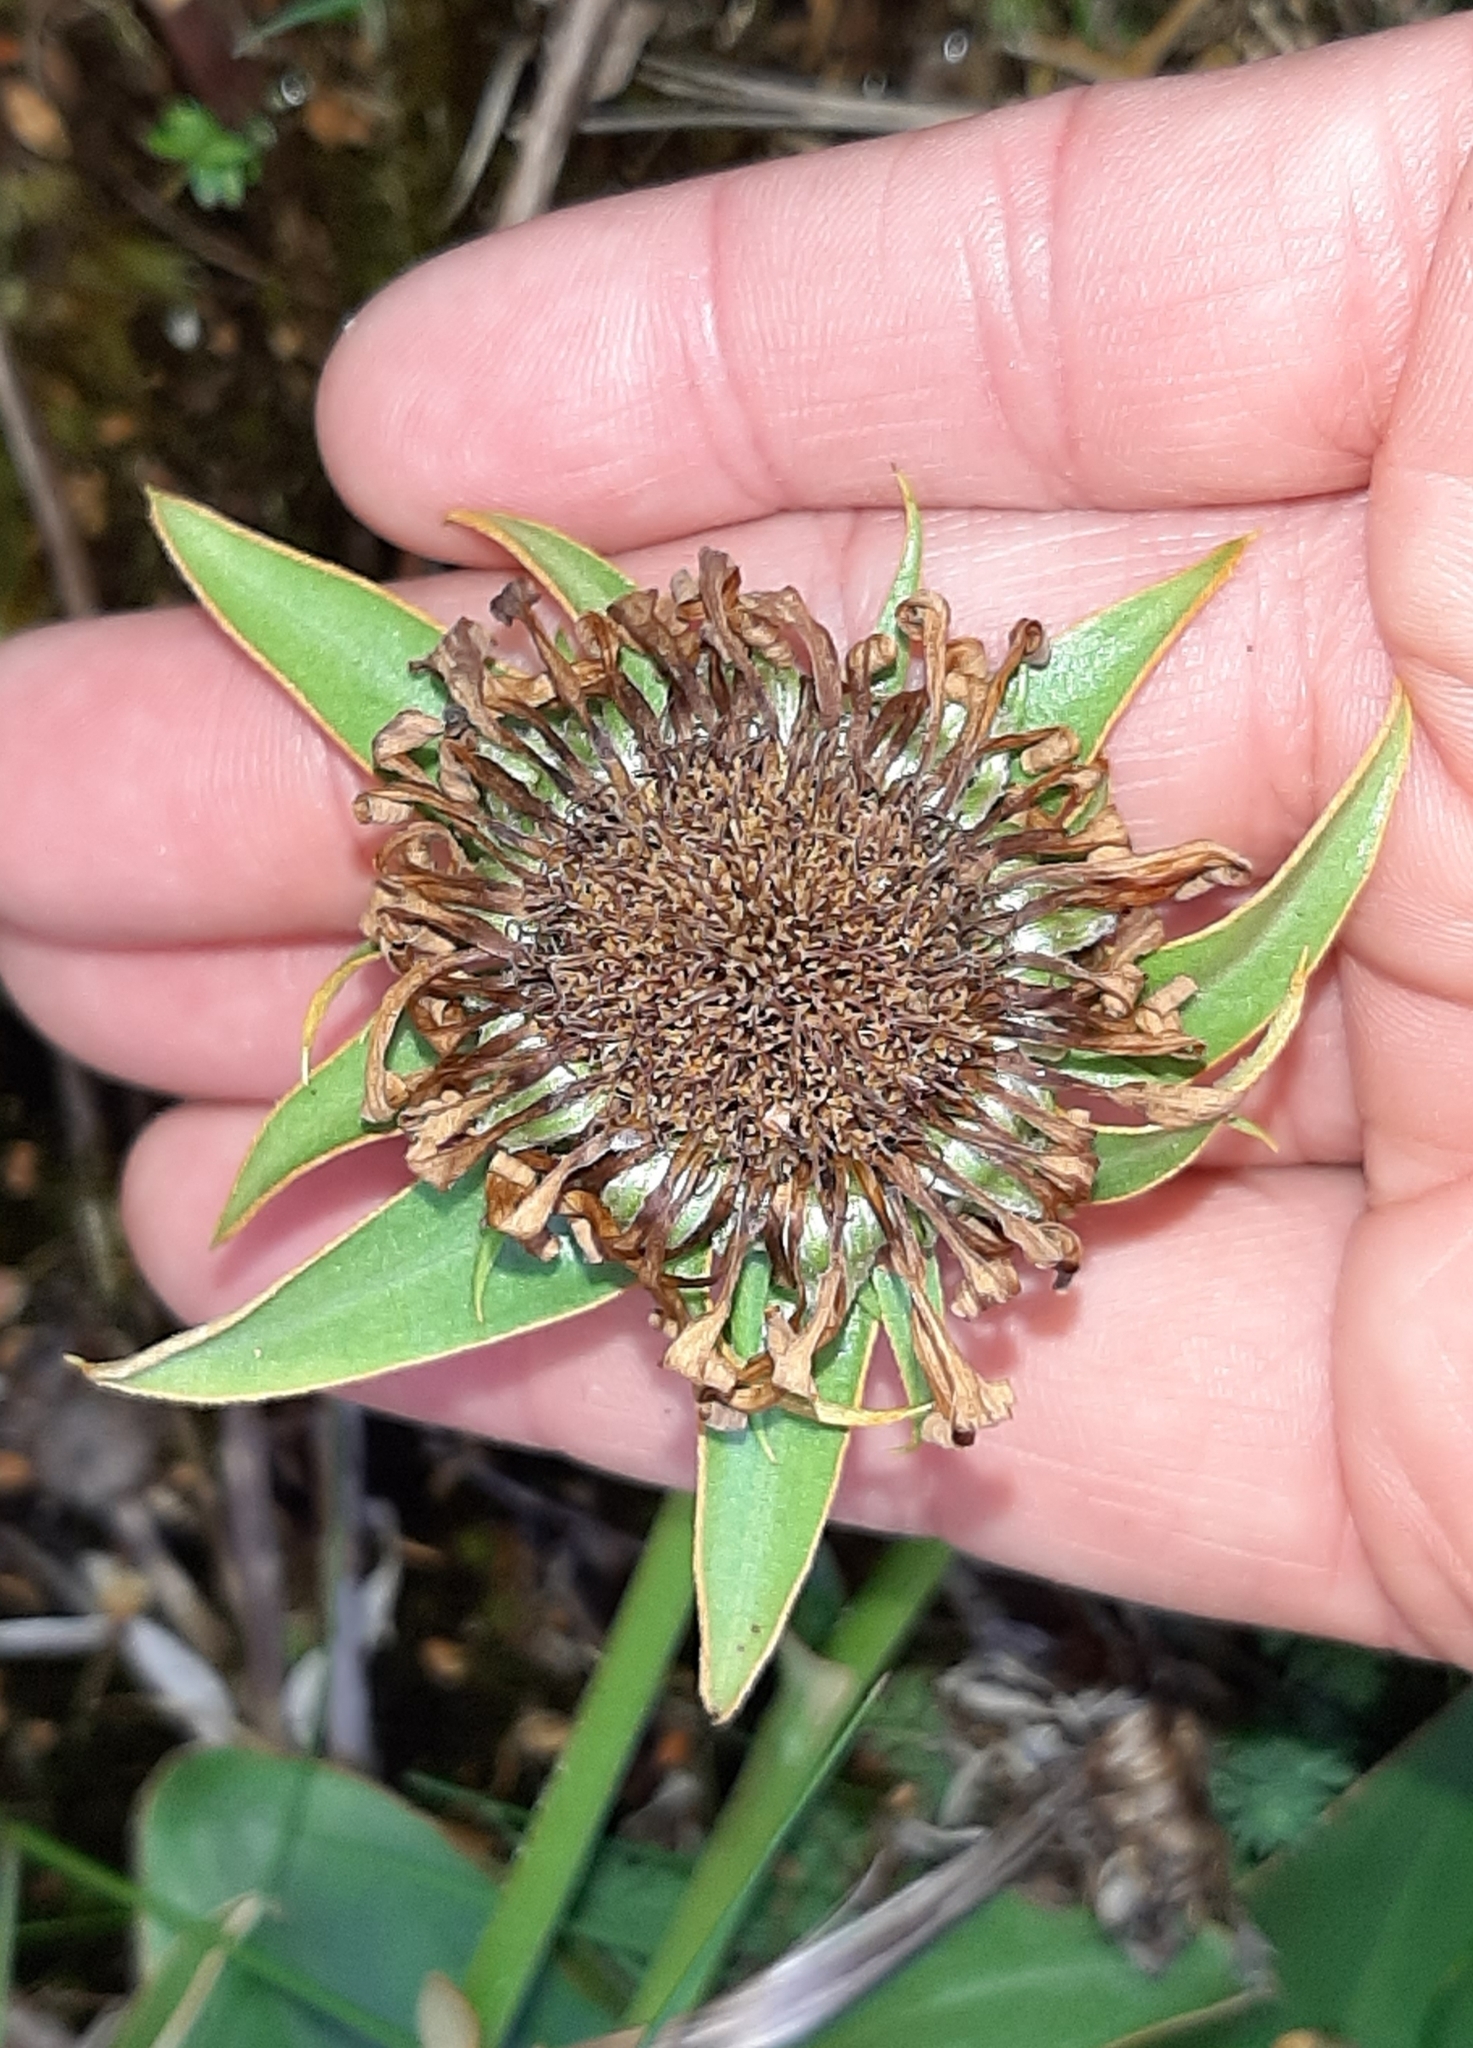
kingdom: Plantae
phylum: Tracheophyta
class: Magnoliopsida
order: Asterales
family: Asteraceae
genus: Celmisia
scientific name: Celmisia dallii
